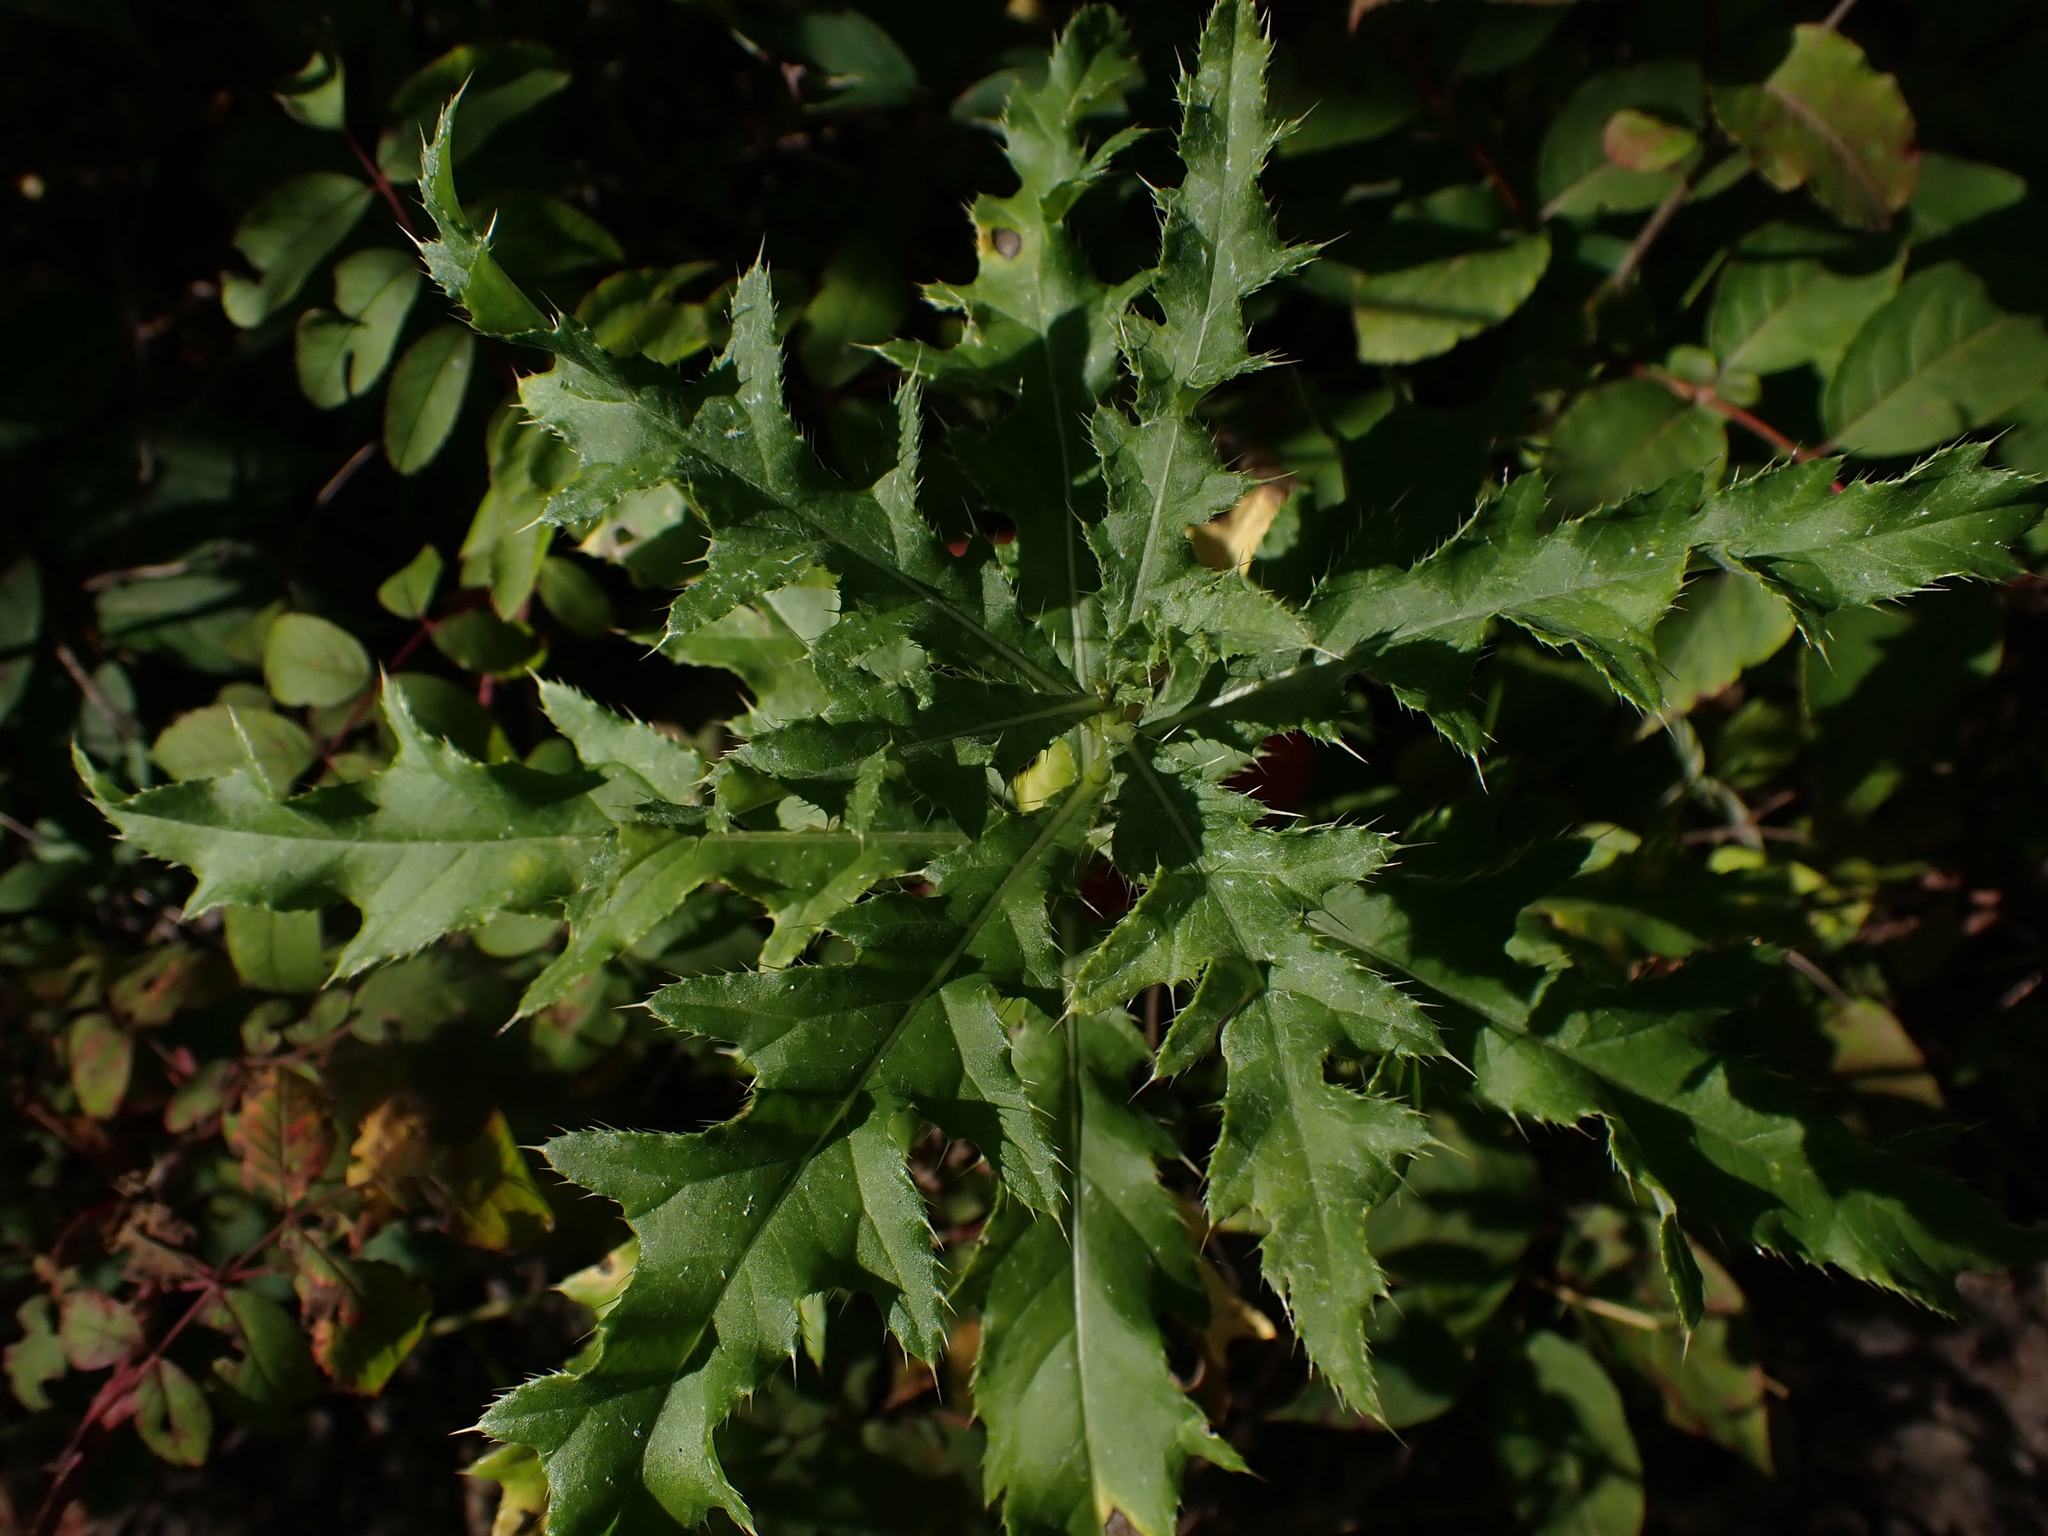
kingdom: Plantae
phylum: Tracheophyta
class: Magnoliopsida
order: Asterales
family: Asteraceae
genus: Cirsium
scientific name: Cirsium arvense
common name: Creeping thistle
